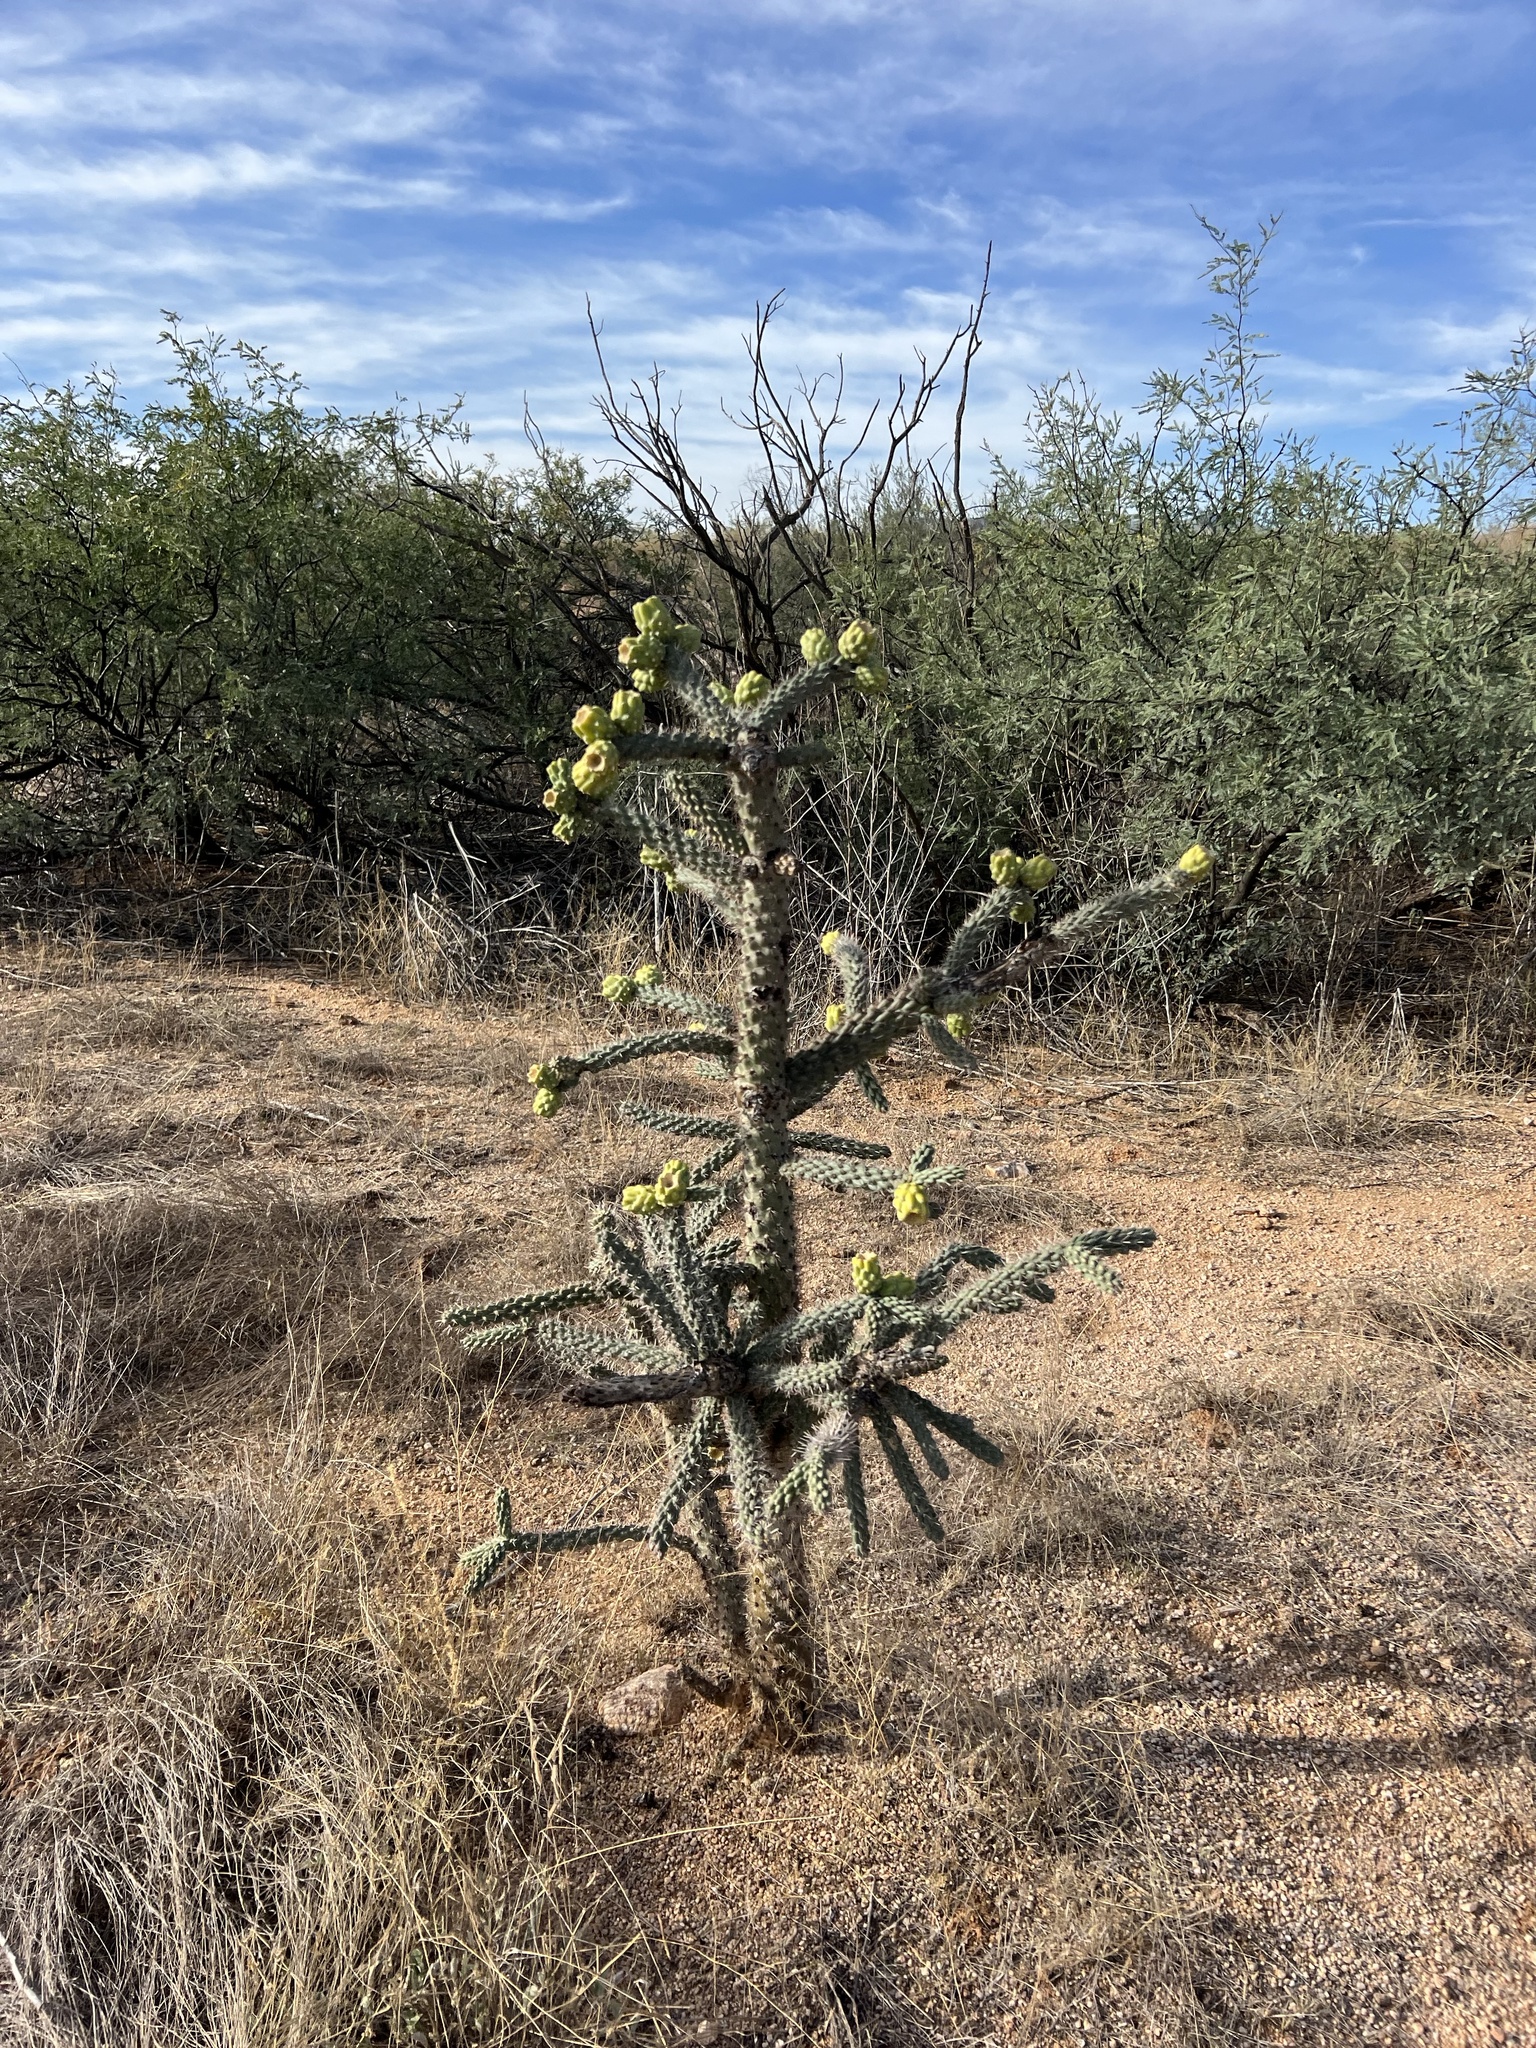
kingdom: Plantae
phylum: Tracheophyta
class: Magnoliopsida
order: Caryophyllales
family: Cactaceae
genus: Cylindropuntia
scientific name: Cylindropuntia imbricata
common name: Candelabrum cactus
